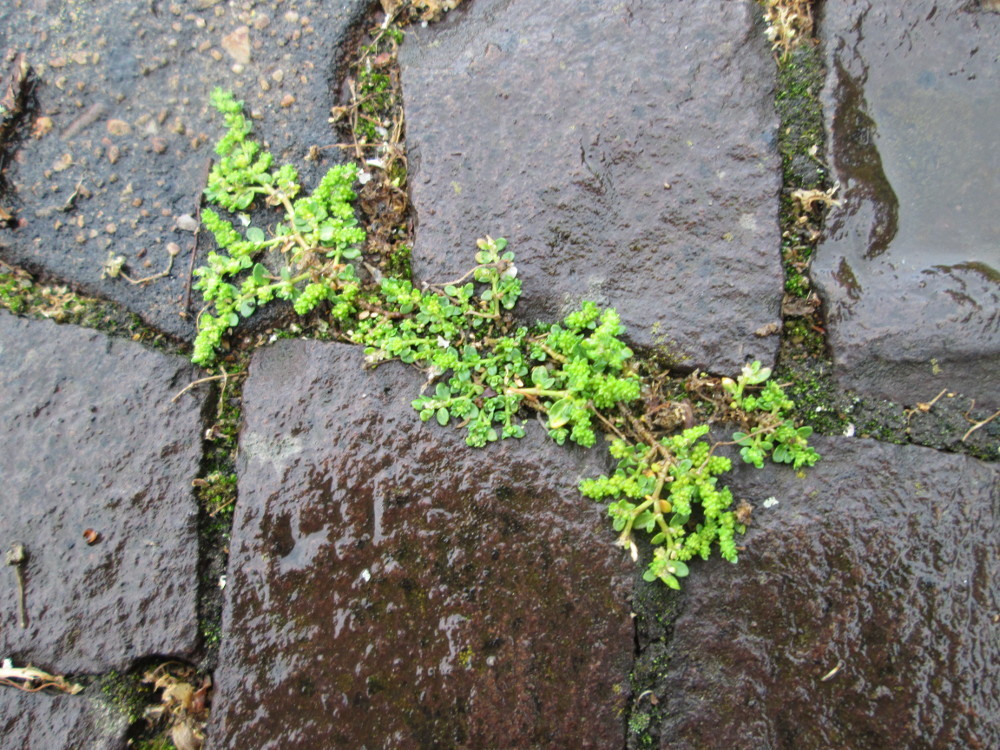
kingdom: Plantae
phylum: Tracheophyta
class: Magnoliopsida
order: Caryophyllales
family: Caryophyllaceae
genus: Herniaria
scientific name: Herniaria glabra
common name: Smooth rupturewort
